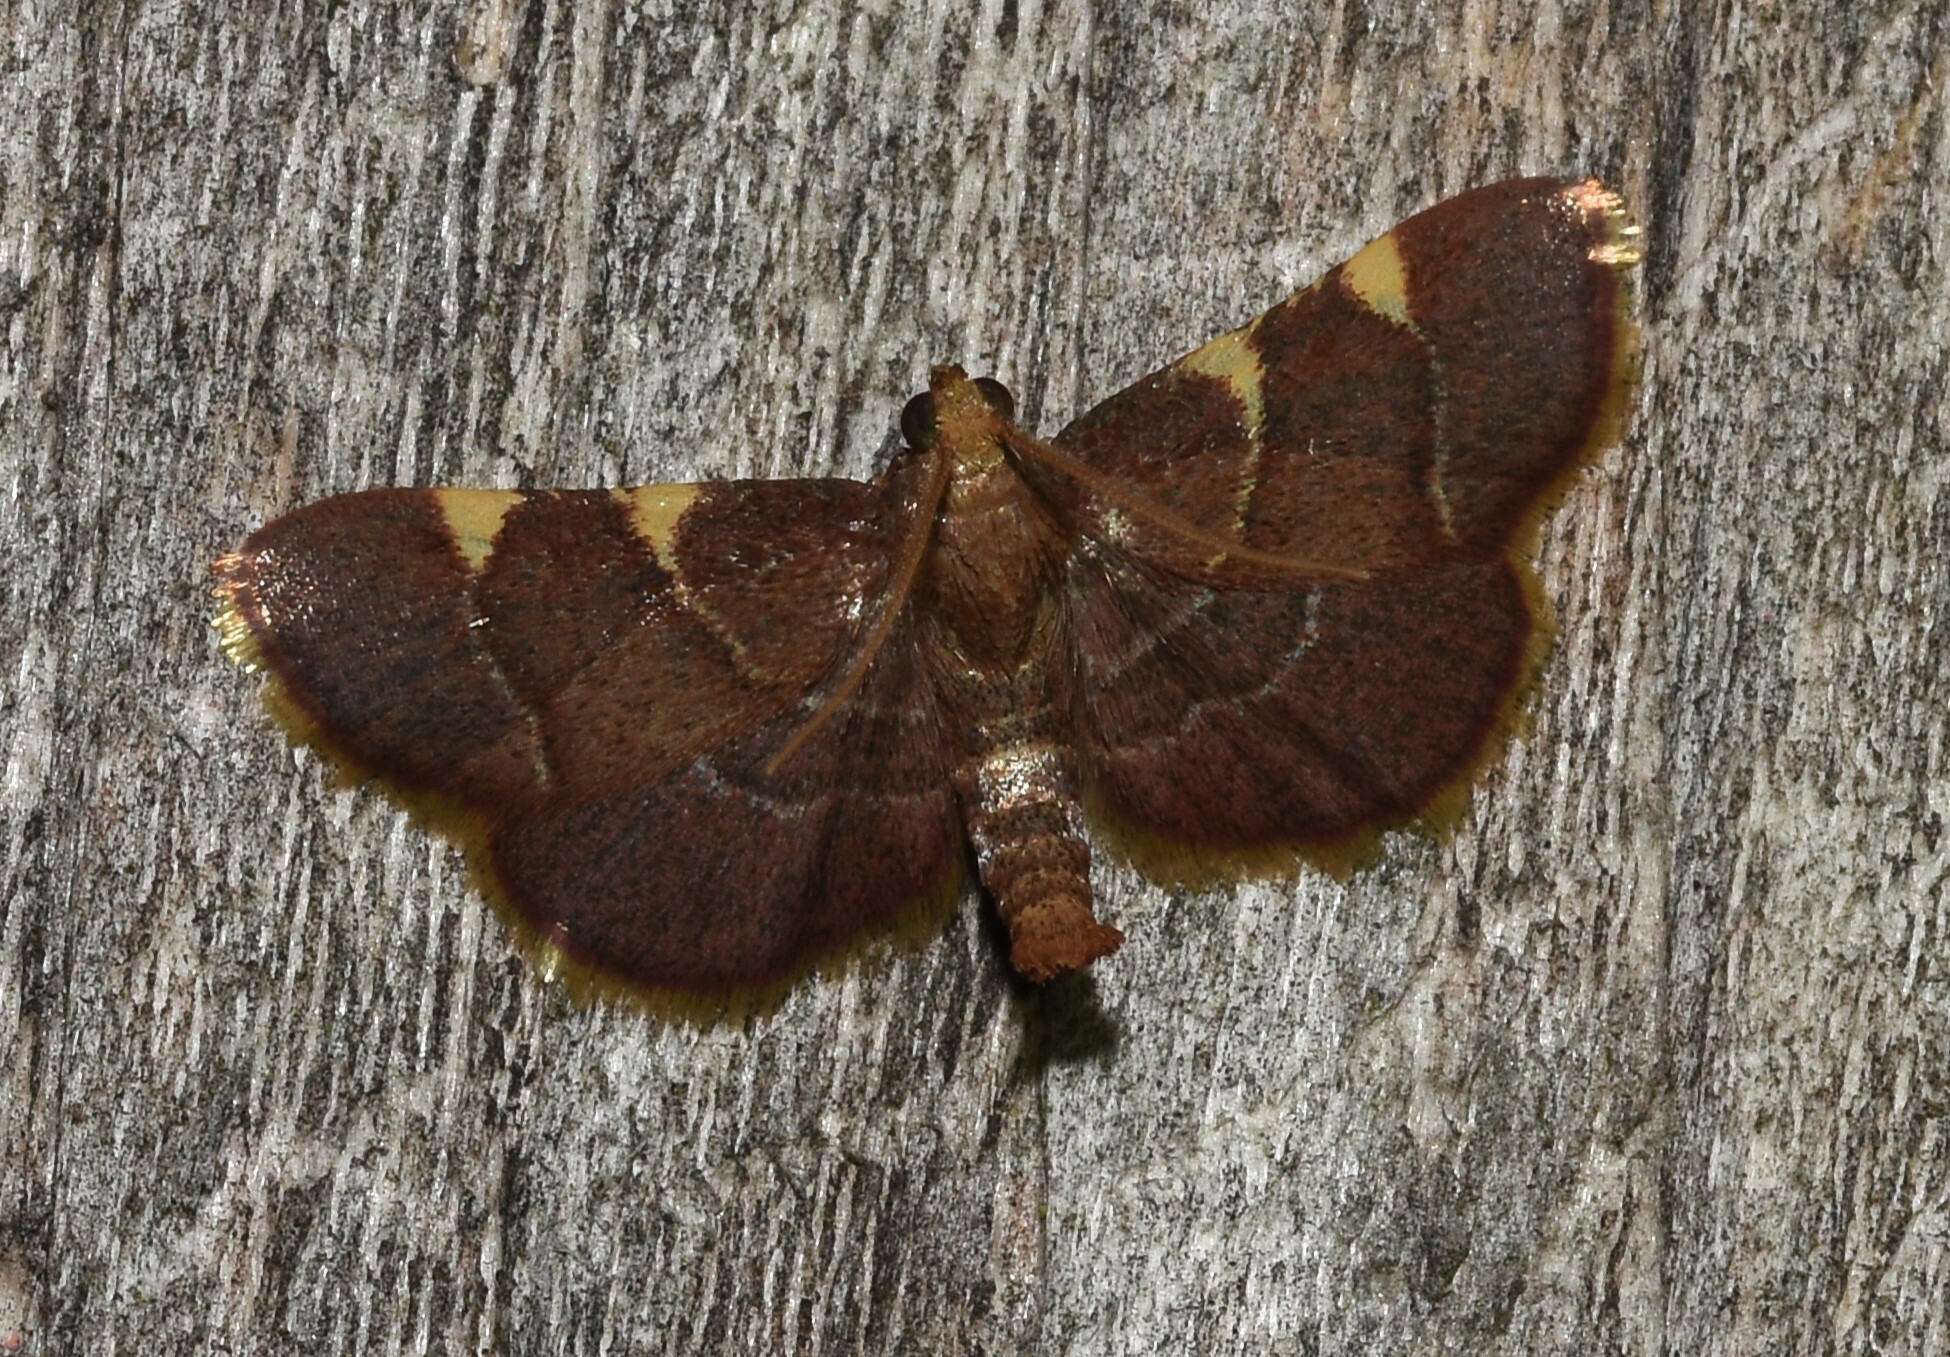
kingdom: Animalia
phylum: Arthropoda
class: Insecta
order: Lepidoptera
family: Pyralidae
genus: Hypsopygia
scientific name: Hypsopygia olinalis
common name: Yellow-fringed dolichomia moth
